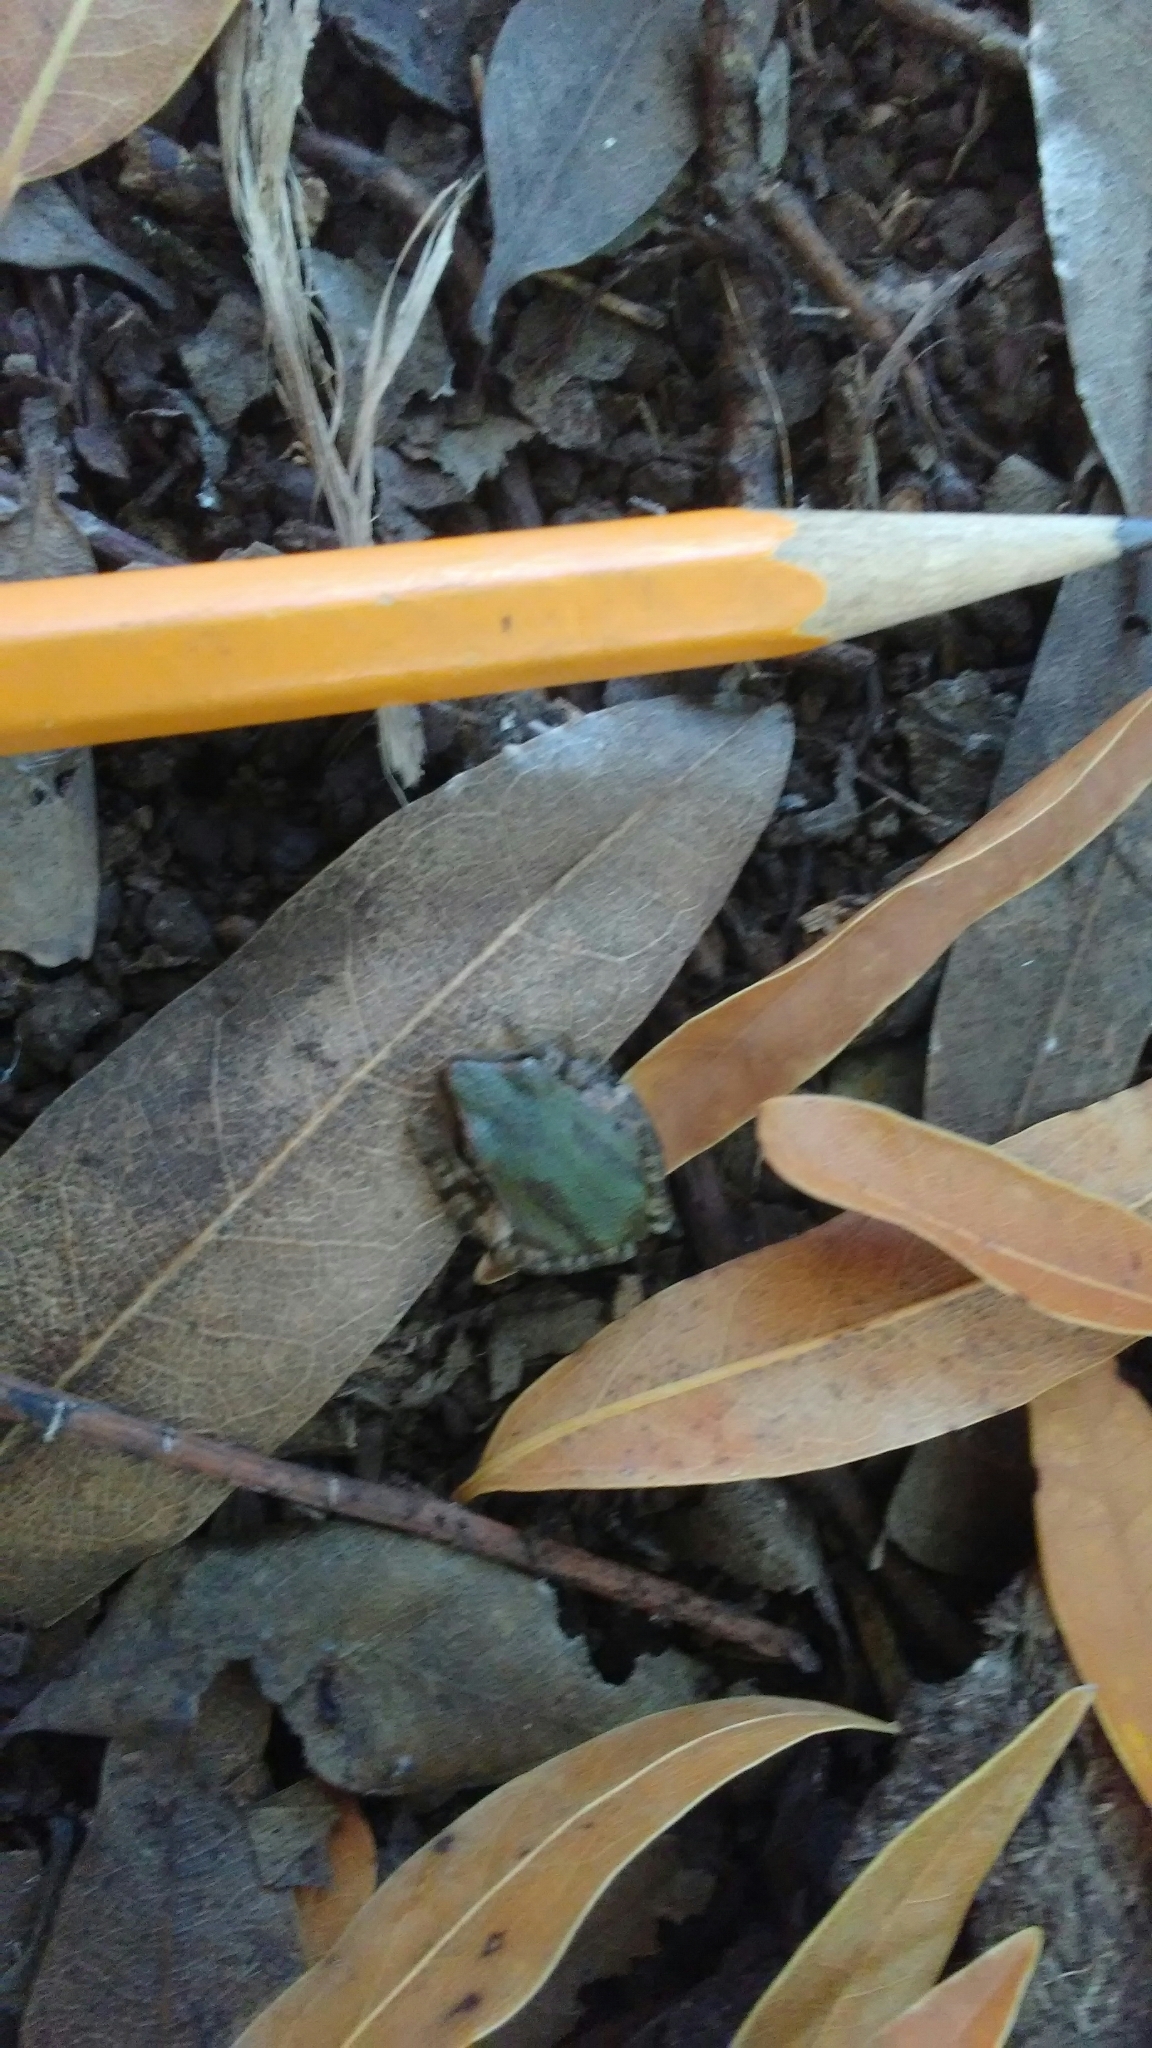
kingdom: Animalia
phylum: Chordata
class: Amphibia
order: Anura
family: Hylidae
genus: Pseudacris
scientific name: Pseudacris regilla
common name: Pacific chorus frog
